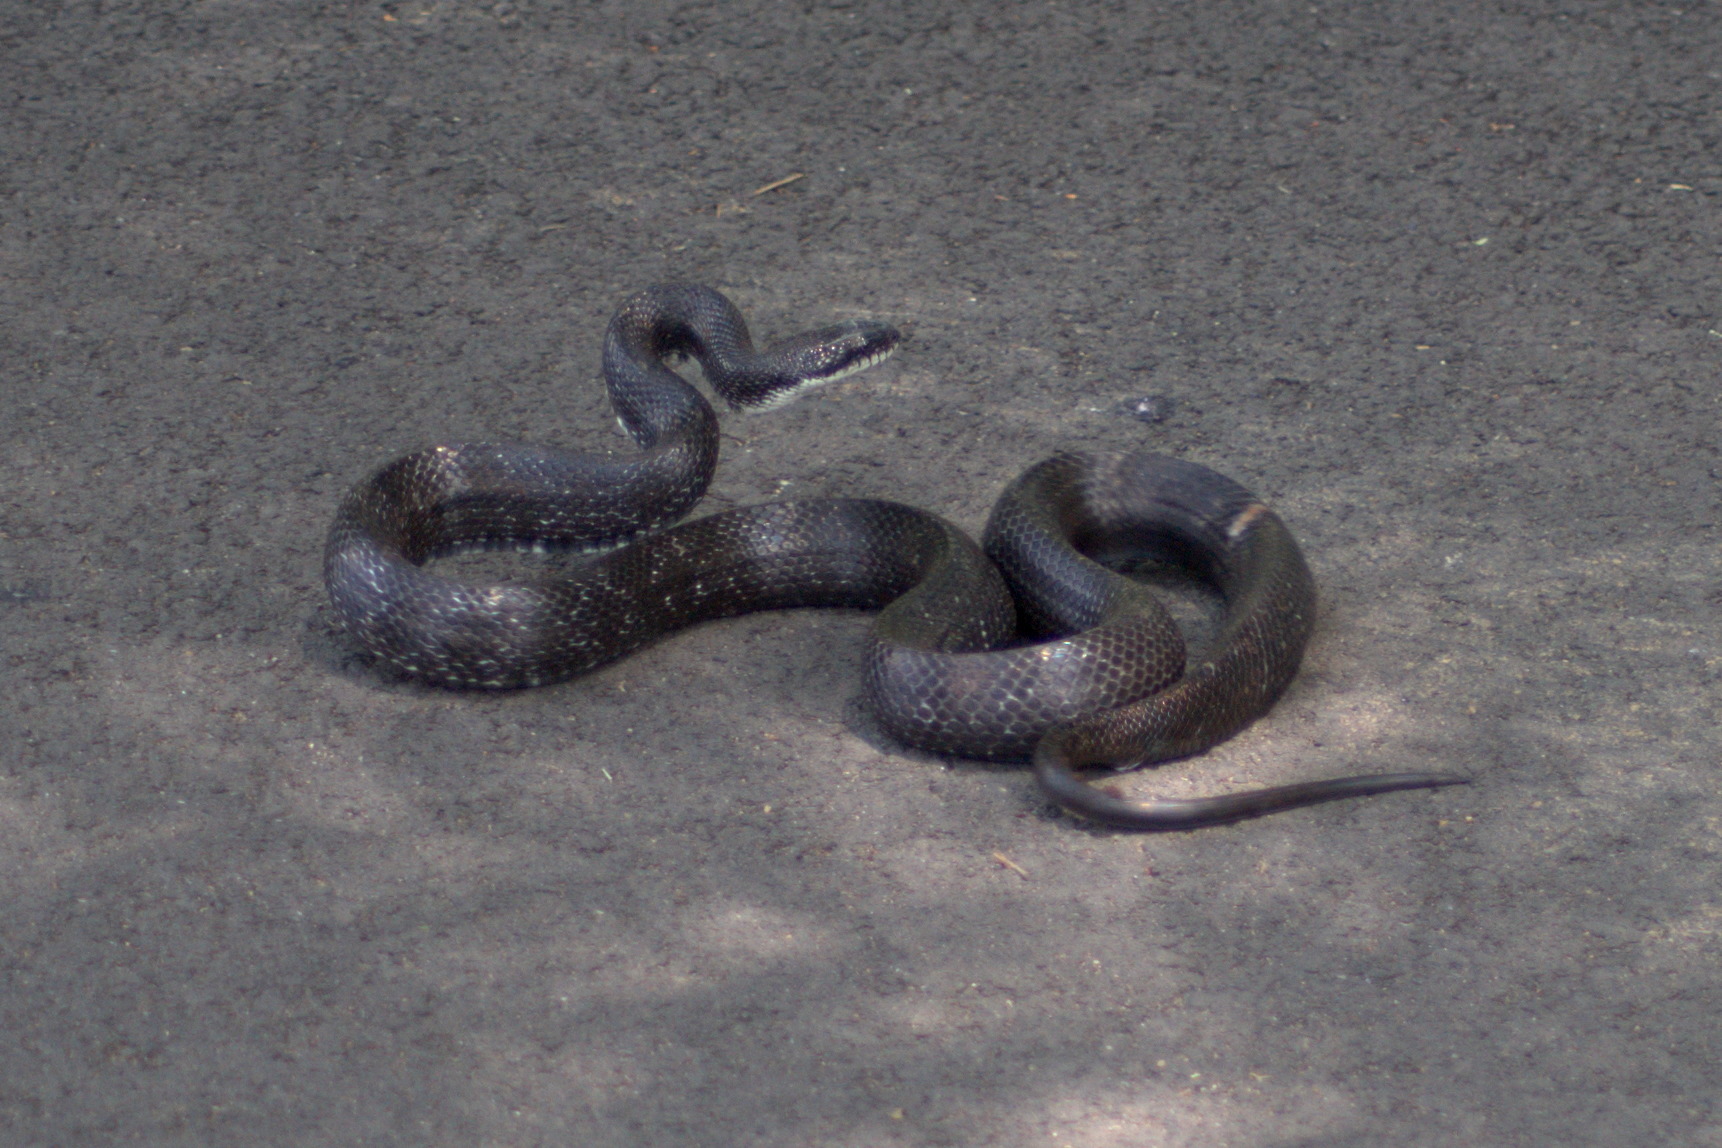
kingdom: Animalia
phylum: Chordata
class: Squamata
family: Colubridae
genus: Pantherophis
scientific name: Pantherophis alleghaniensis
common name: Eastern rat snake
